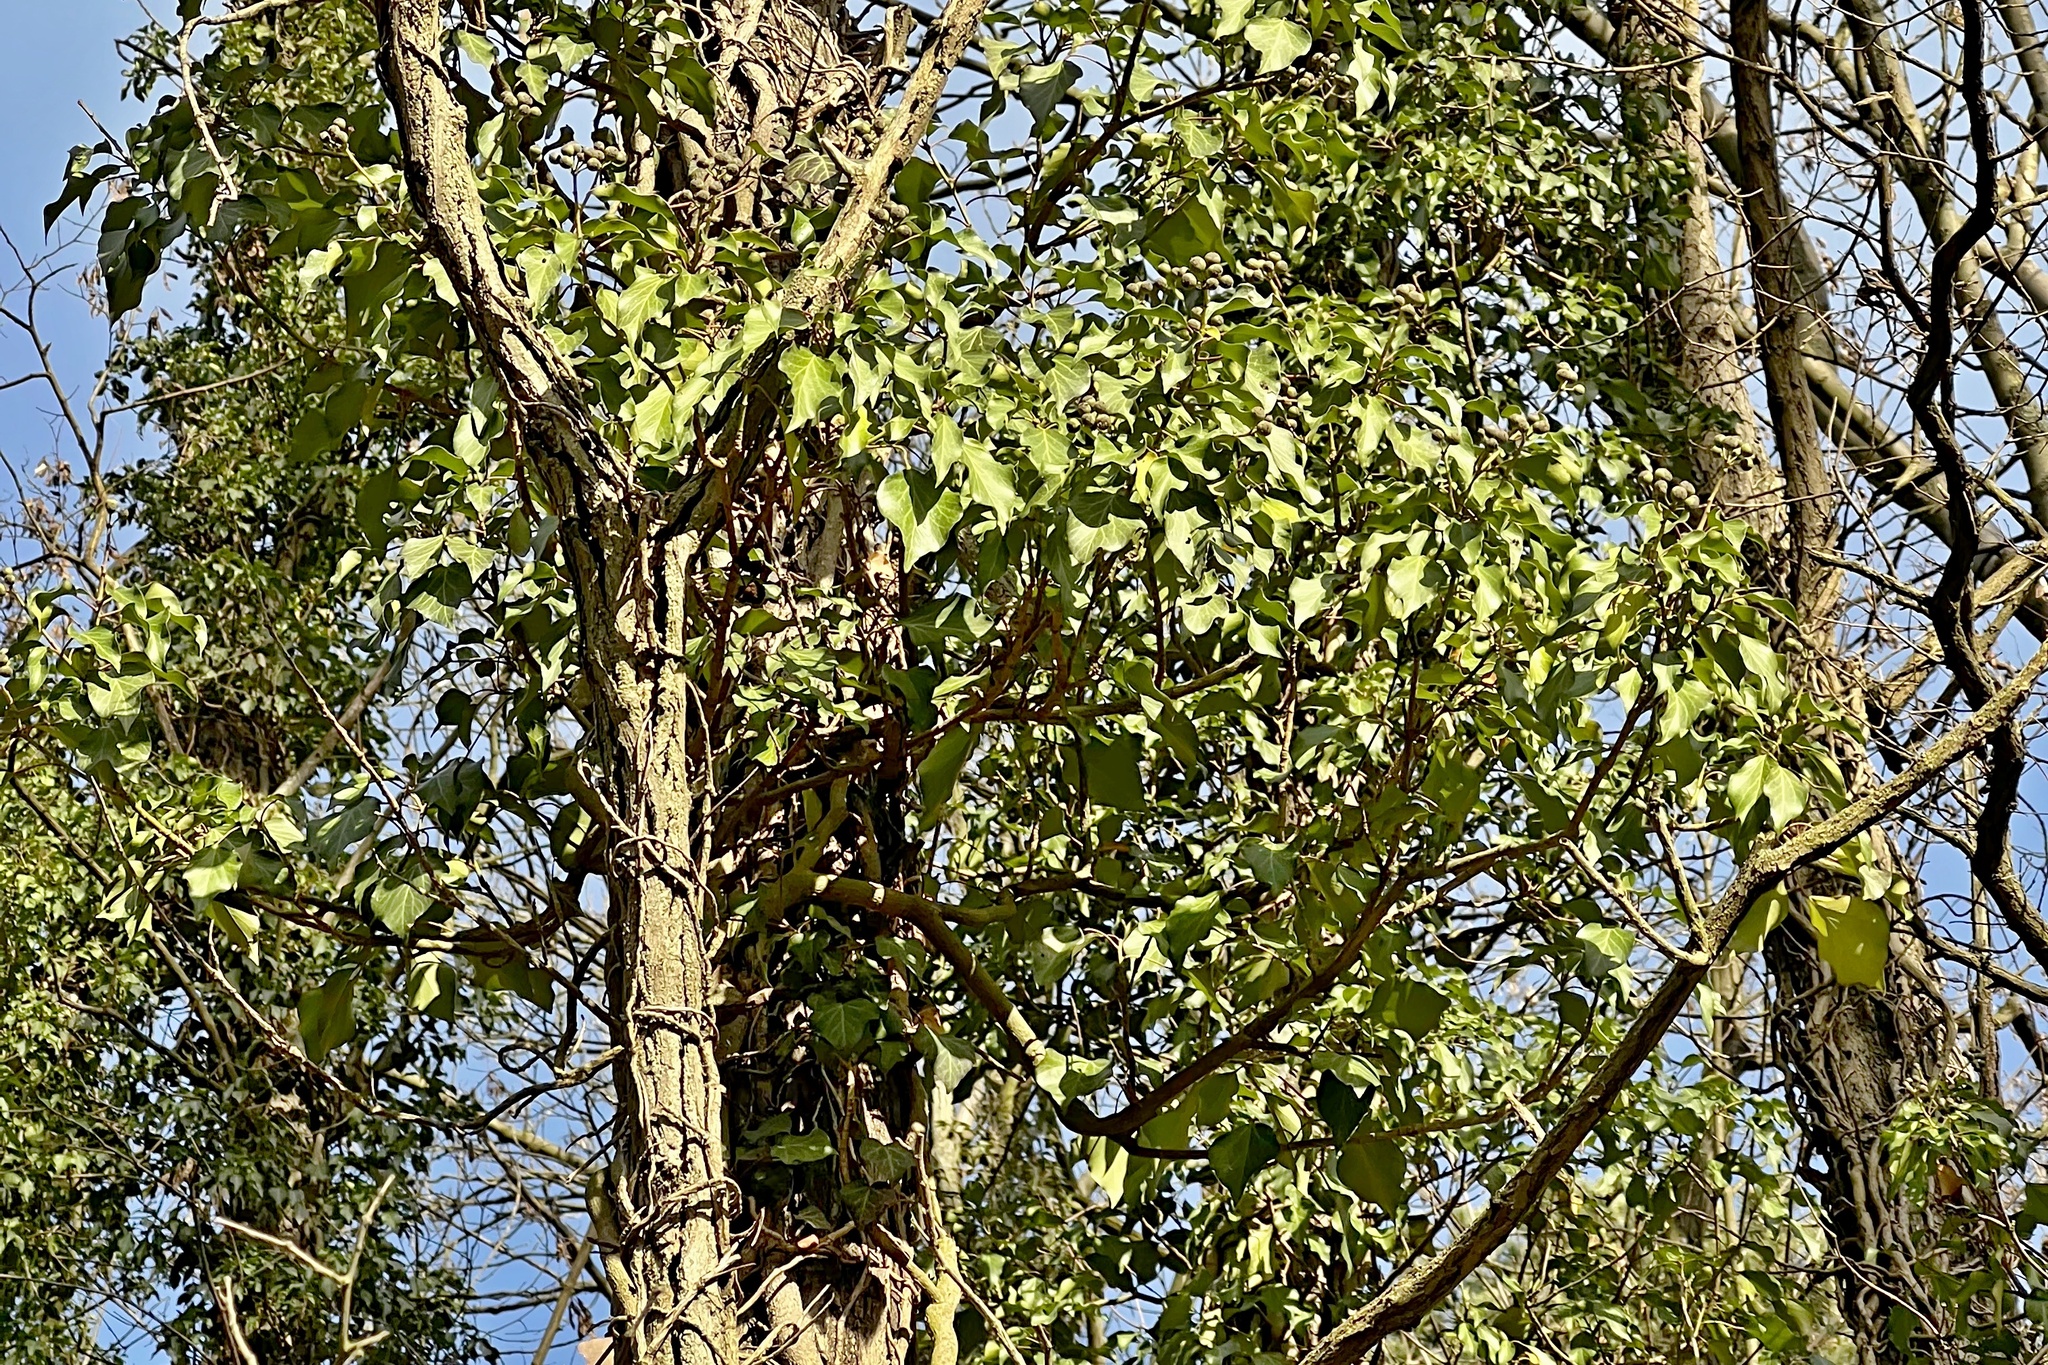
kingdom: Plantae
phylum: Tracheophyta
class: Magnoliopsida
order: Apiales
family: Araliaceae
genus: Hedera
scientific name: Hedera helix
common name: Ivy
